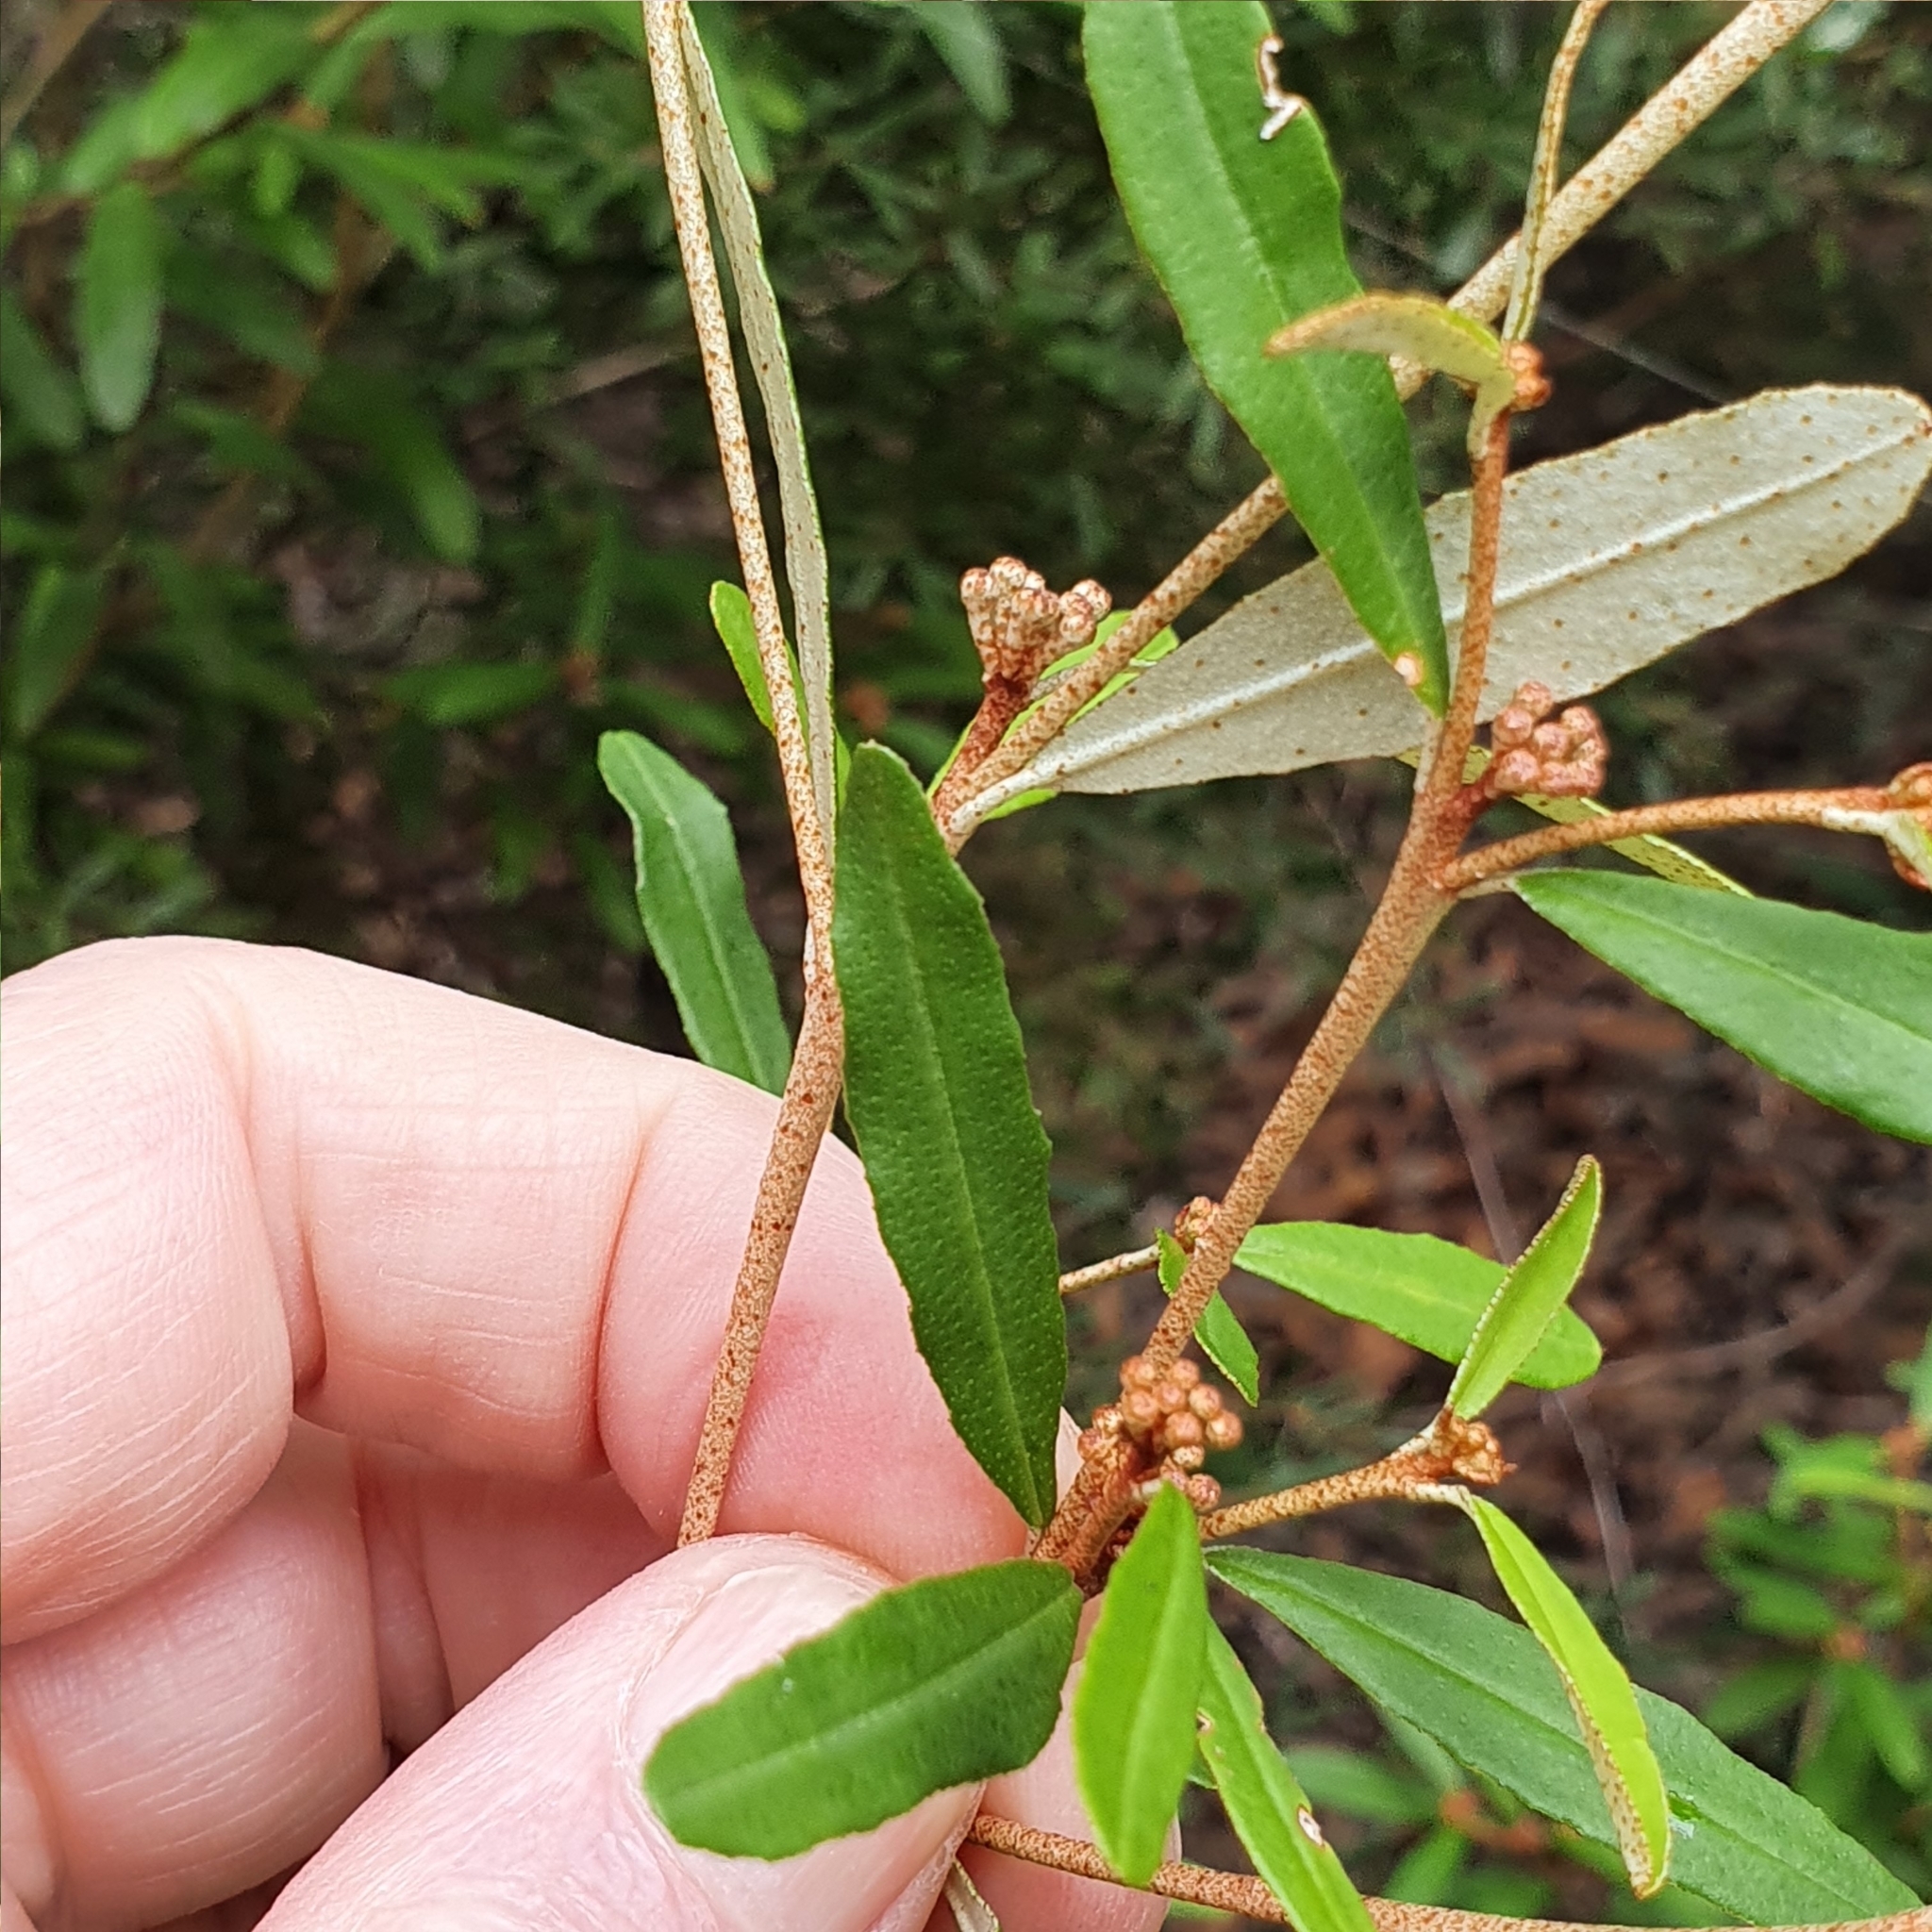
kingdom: Plantae
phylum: Tracheophyta
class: Magnoliopsida
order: Sapindales
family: Rutaceae
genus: Phebalium
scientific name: Phebalium woombye
